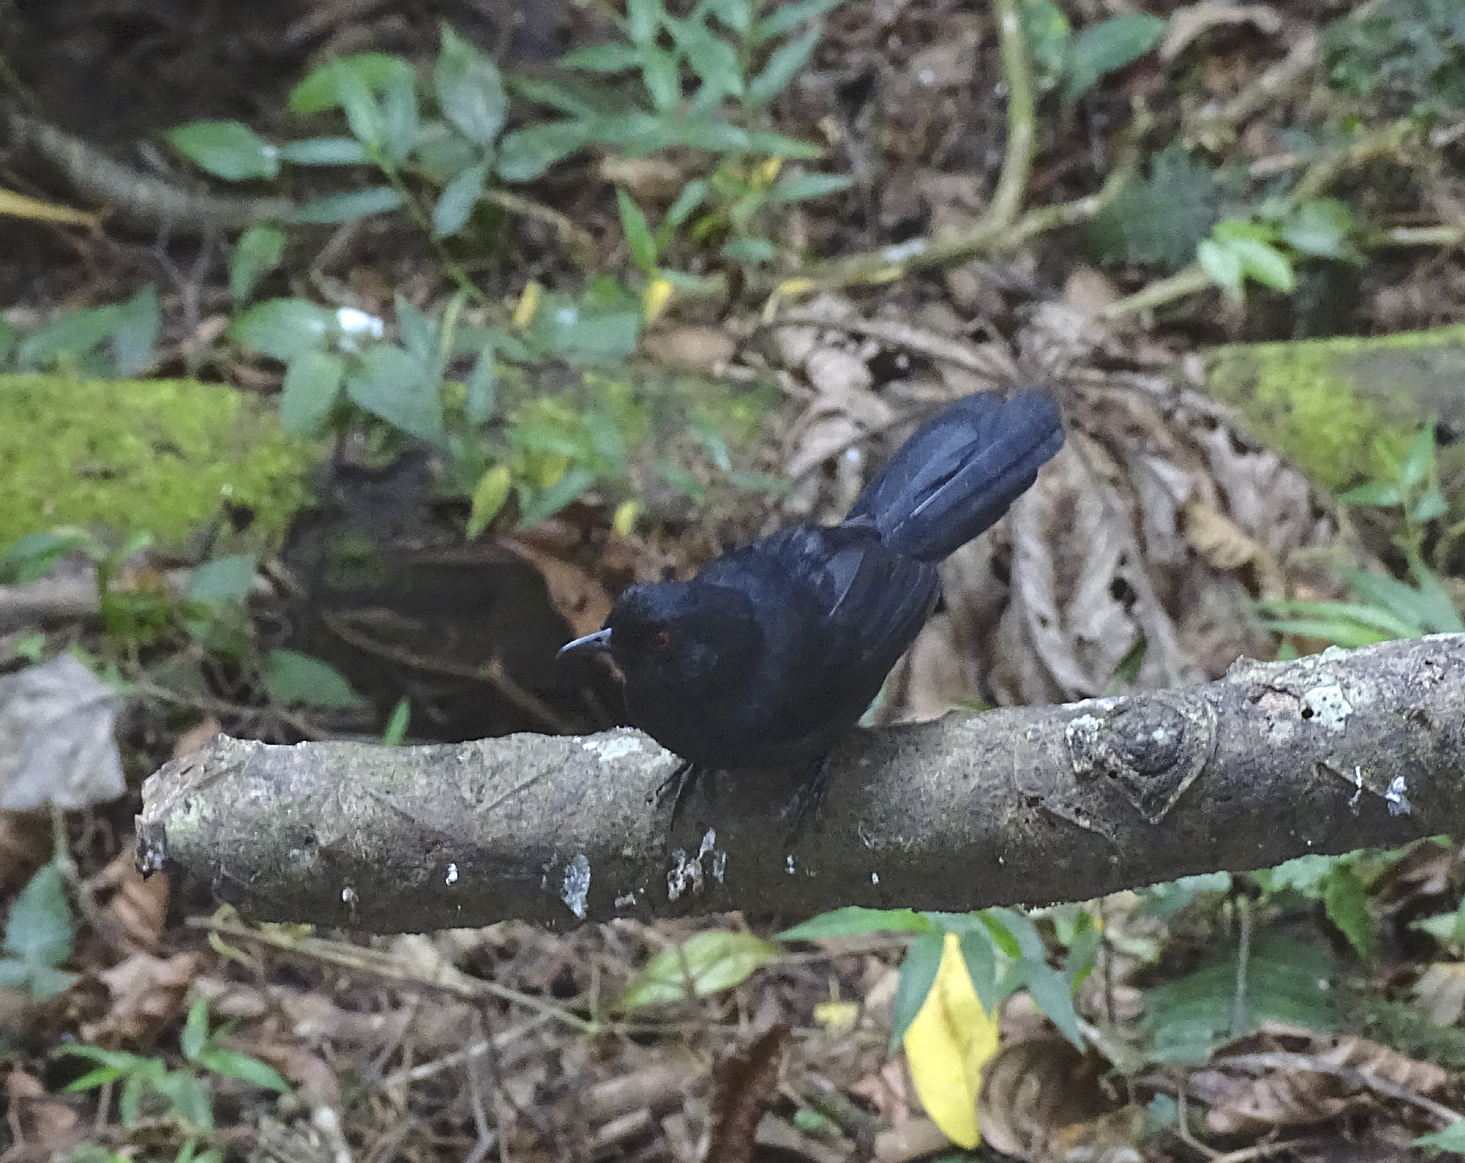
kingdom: Animalia
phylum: Chordata
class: Aves
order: Passeriformes
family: Thamnophilidae
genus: Pyriglena
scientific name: Pyriglena leuconota
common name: White-backed fire-eye
